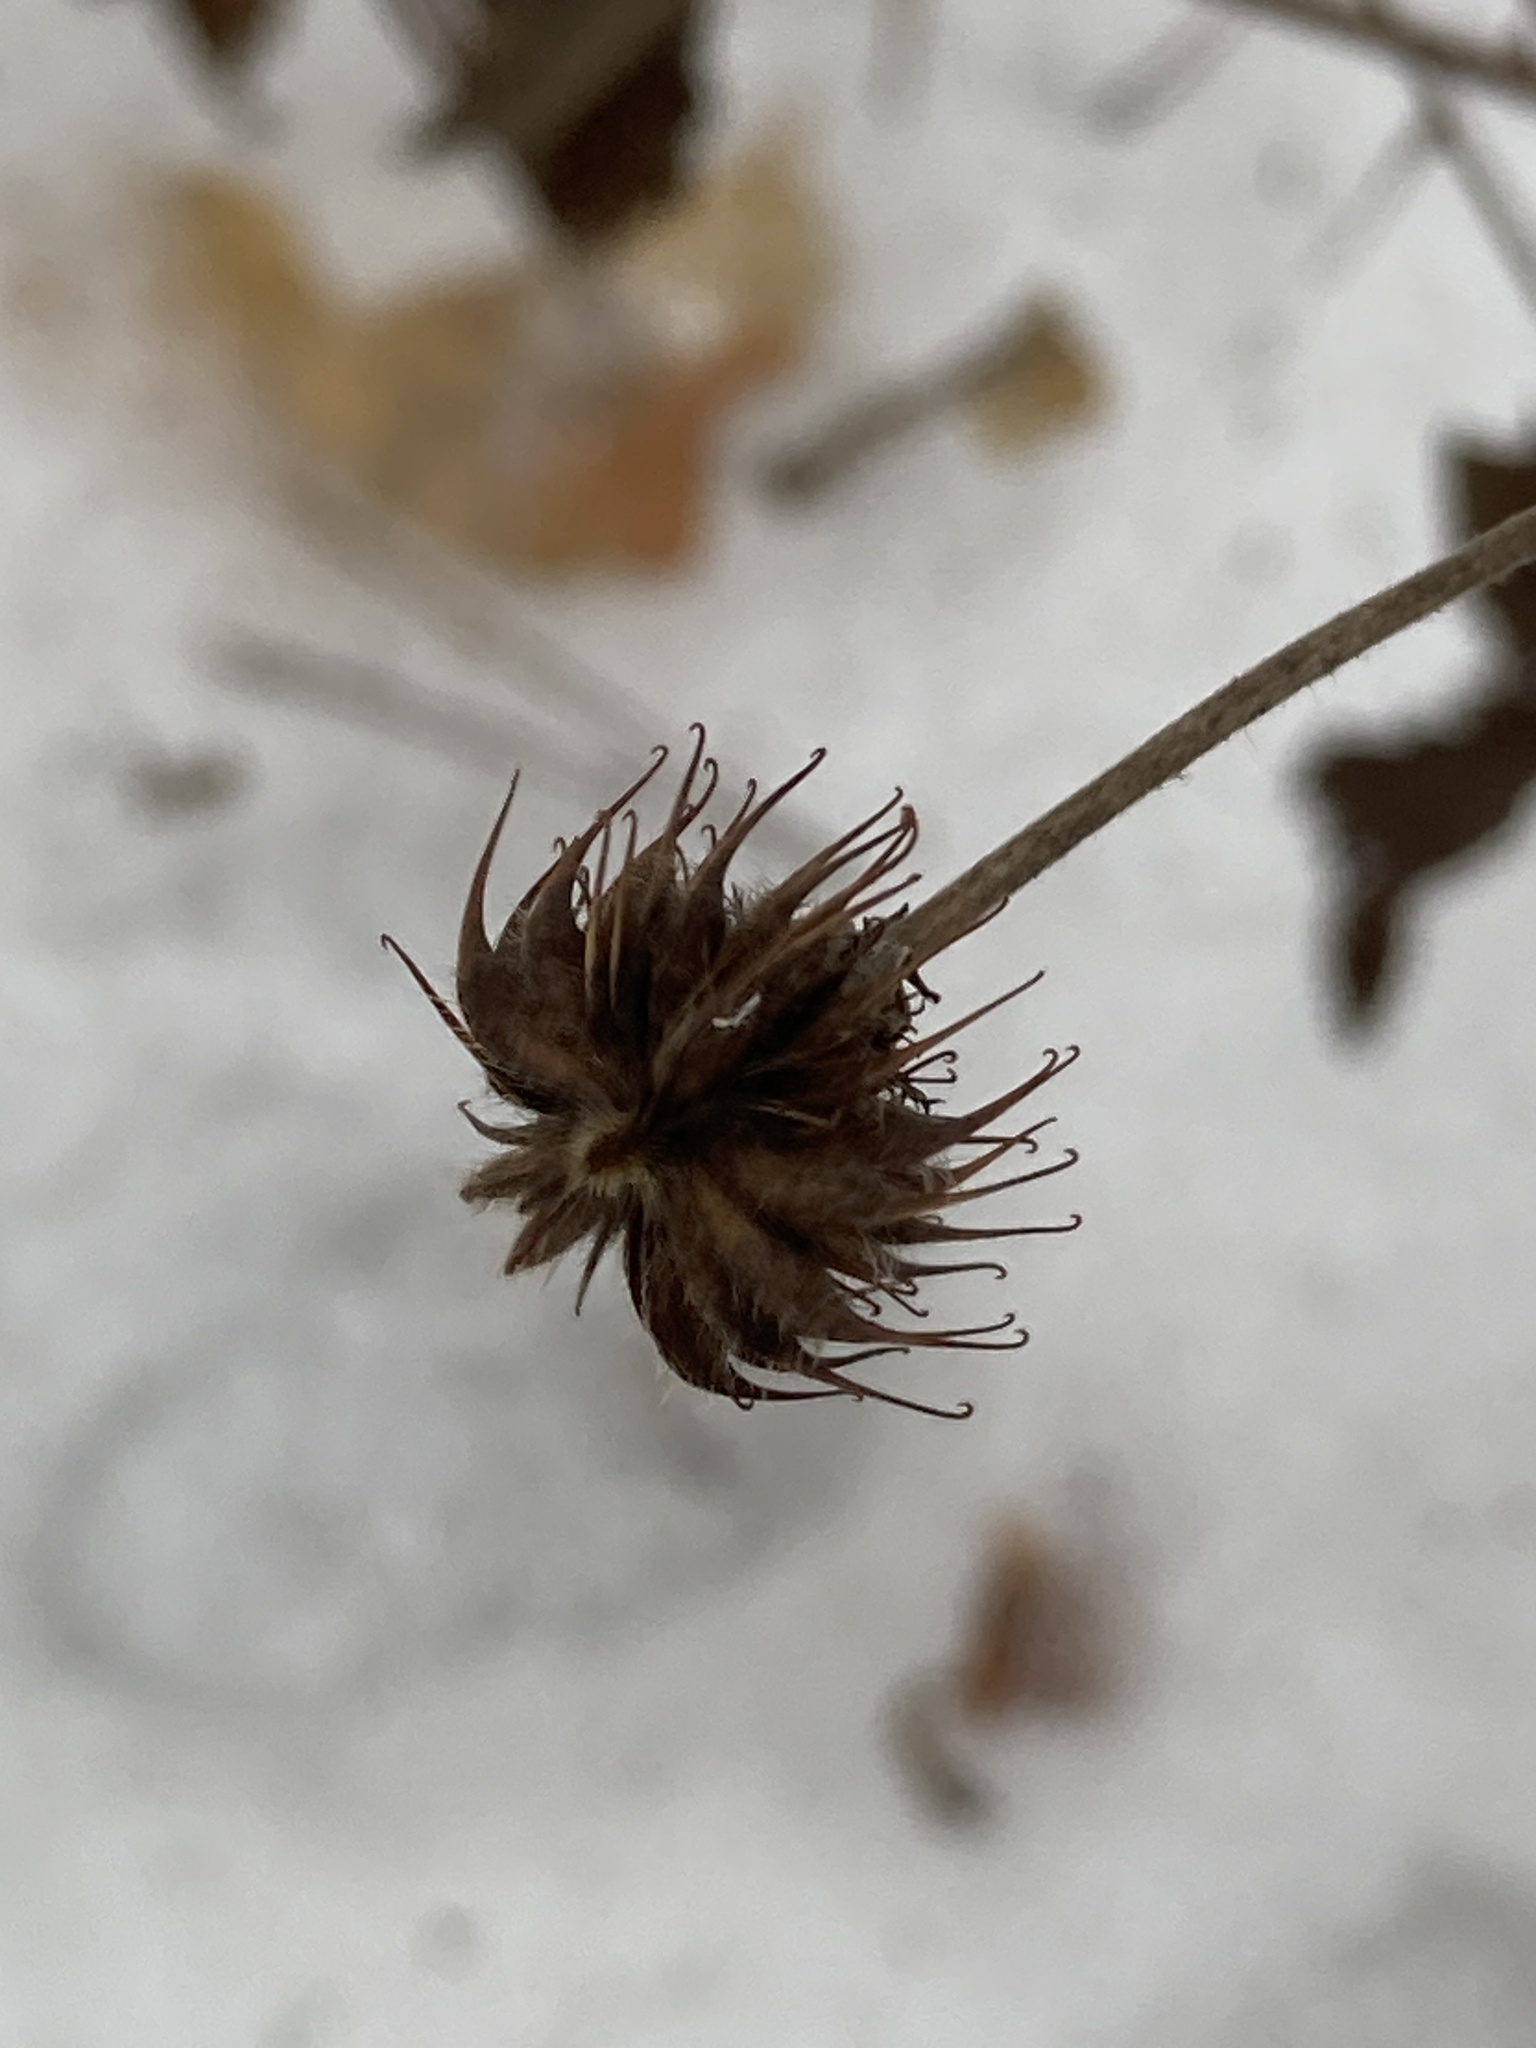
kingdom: Plantae
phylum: Tracheophyta
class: Magnoliopsida
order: Rosales
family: Rosaceae
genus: Geum
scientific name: Geum urbanum
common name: Wood avens
